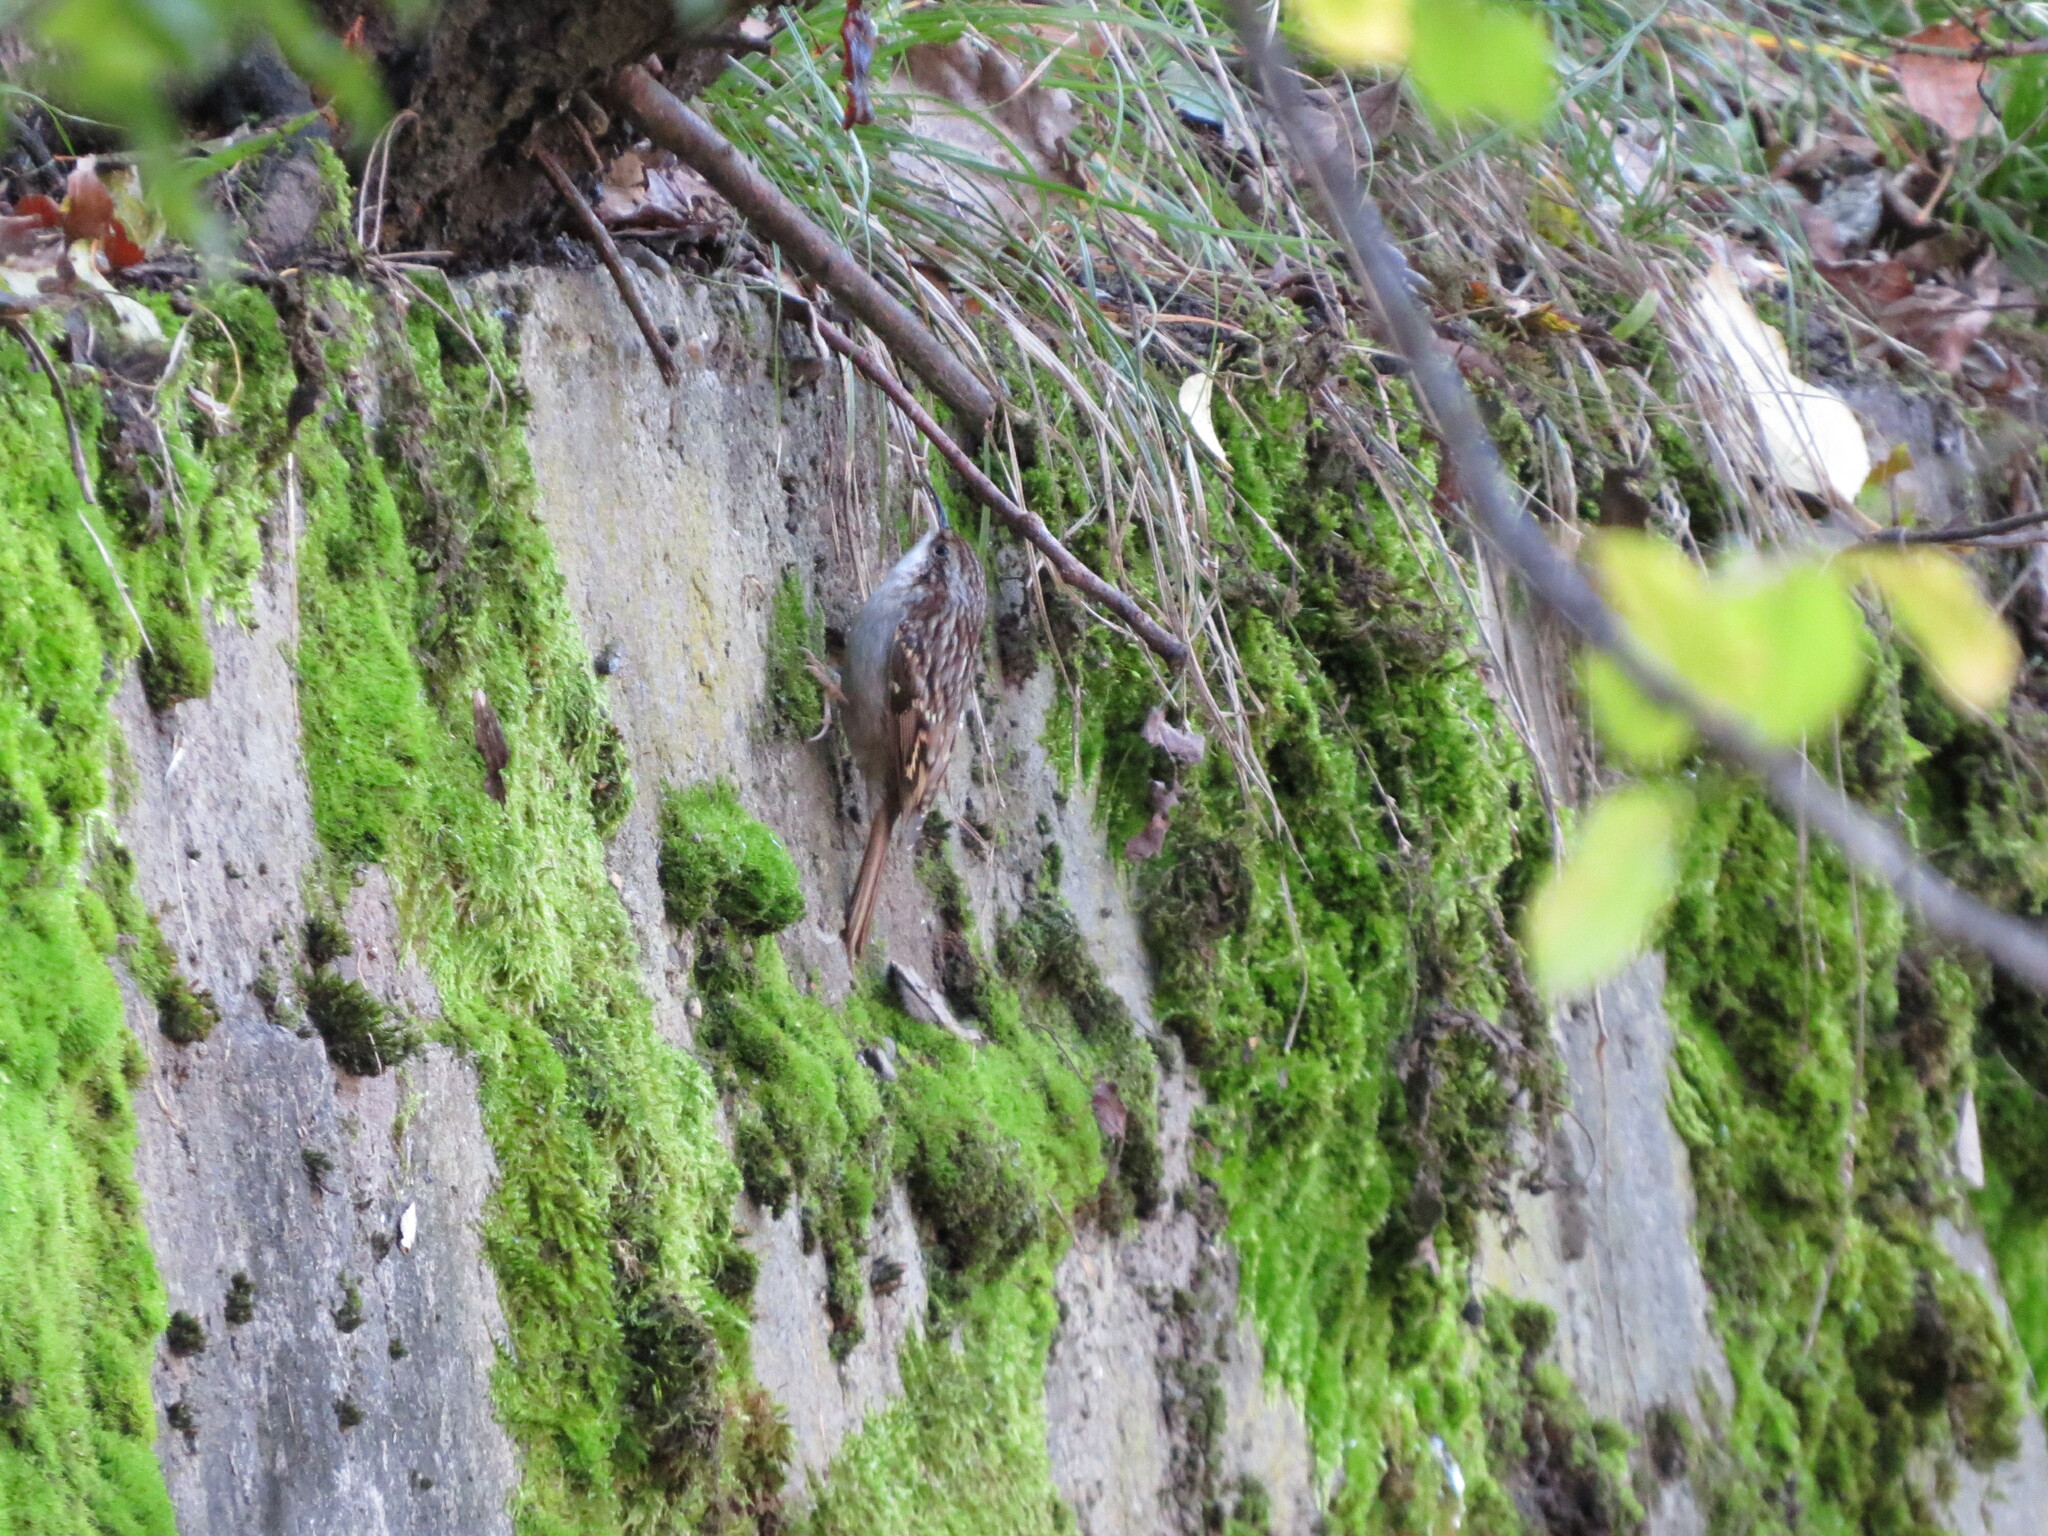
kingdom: Animalia
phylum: Chordata
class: Aves
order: Passeriformes
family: Certhiidae
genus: Certhia
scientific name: Certhia brachydactyla
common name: Short-toed treecreeper
